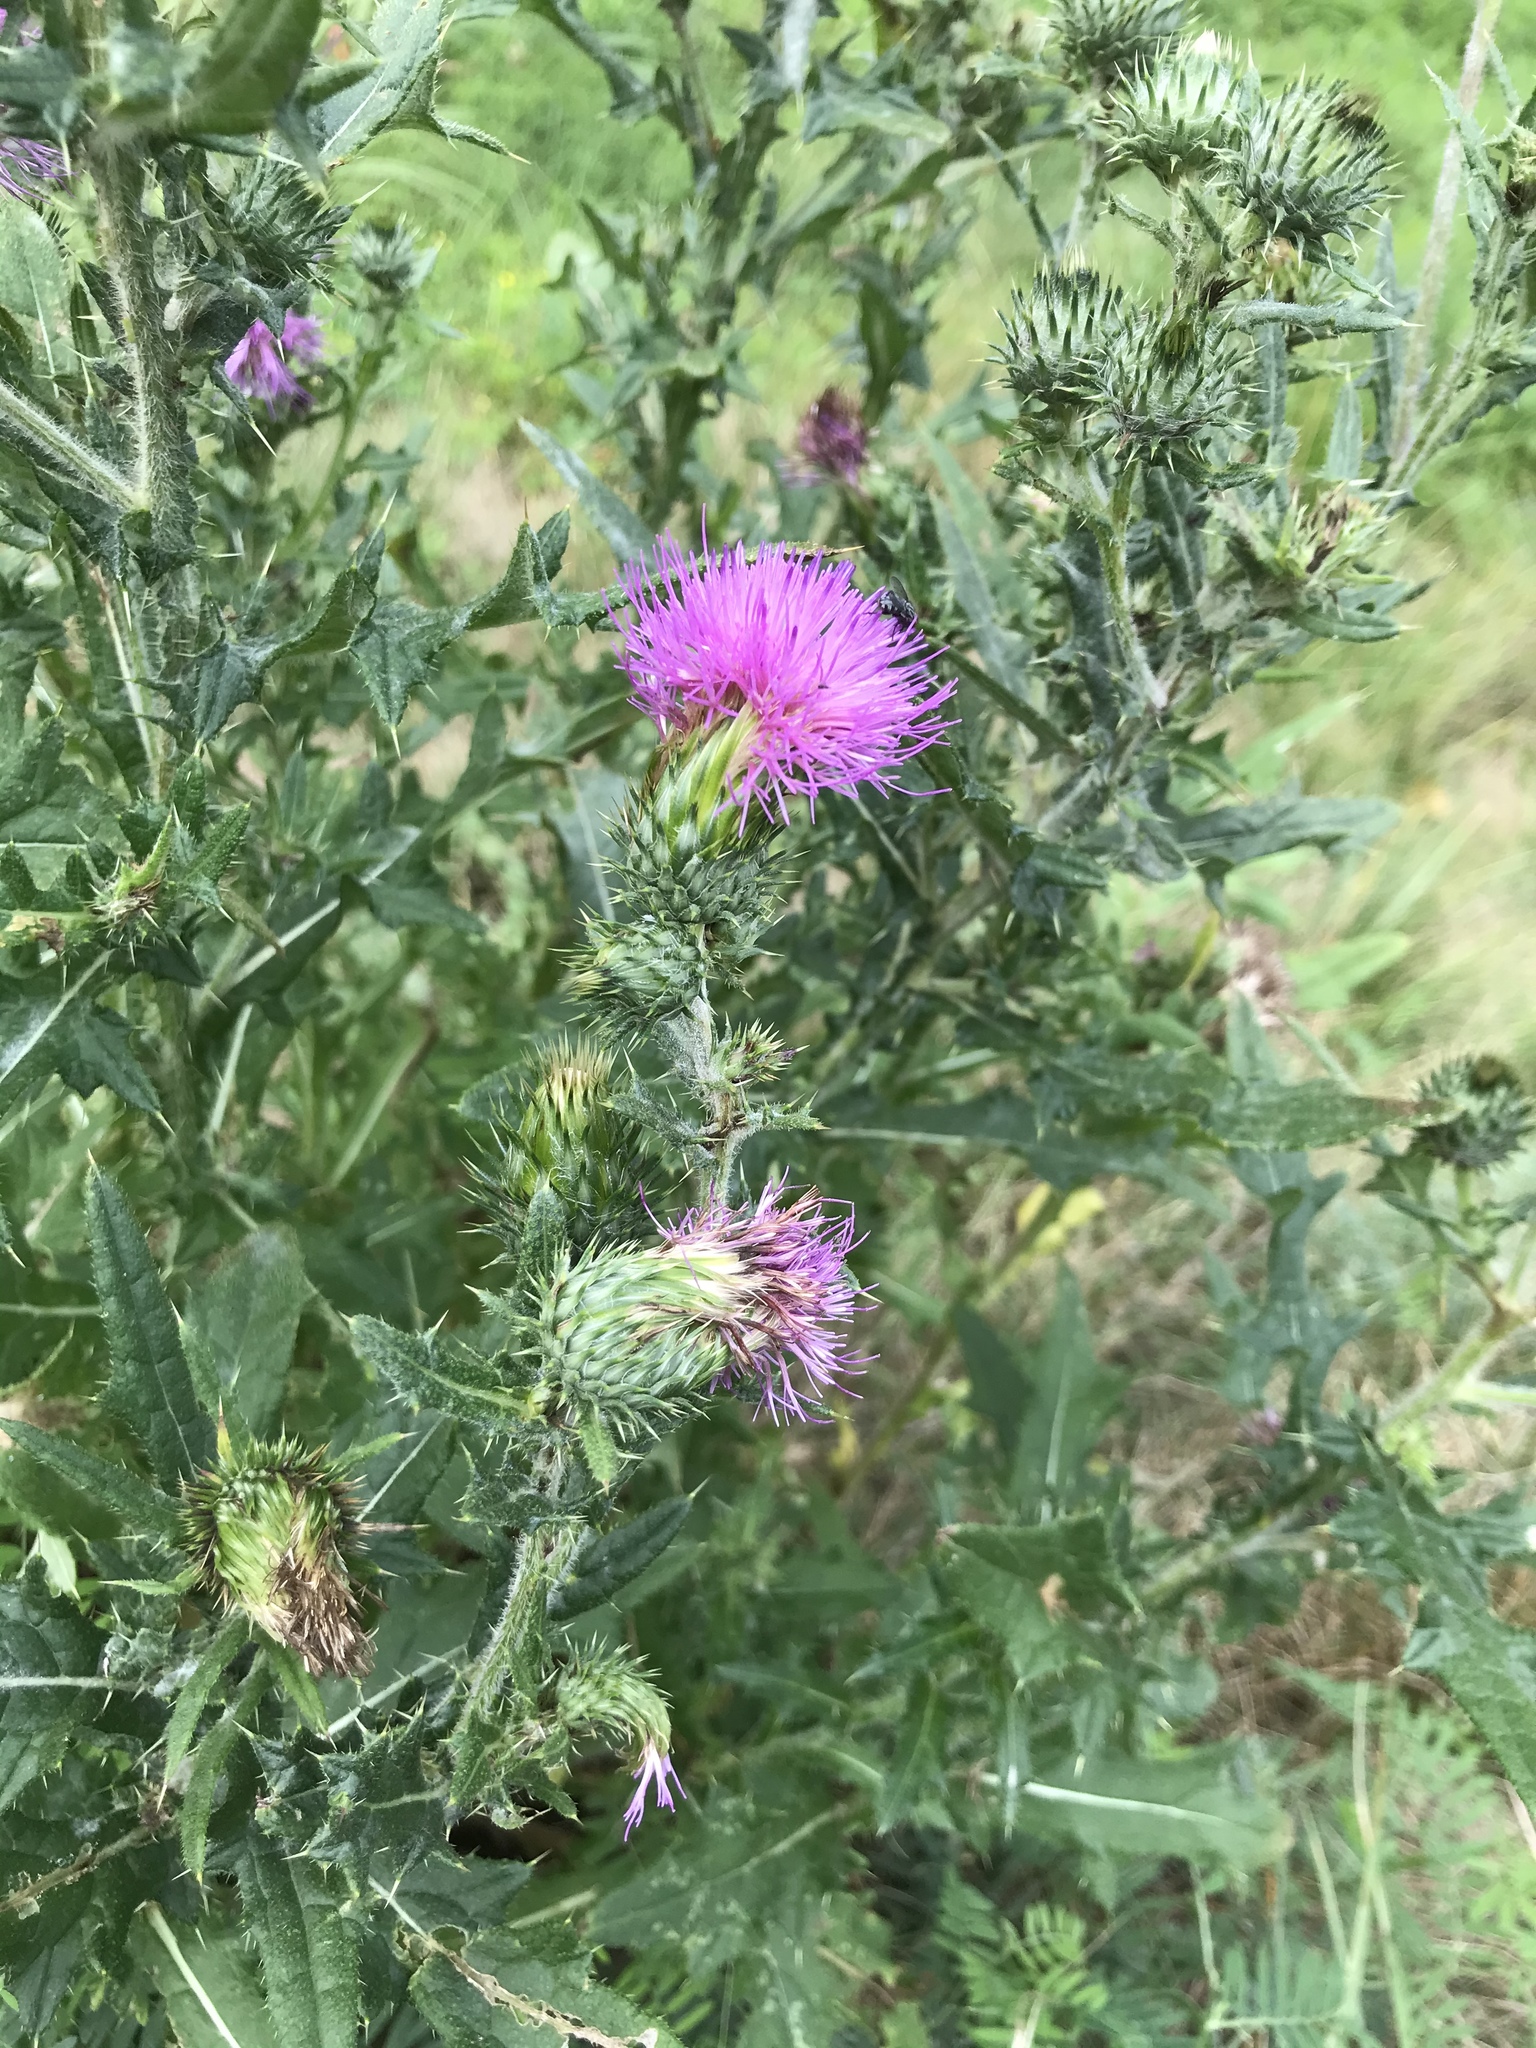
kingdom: Plantae
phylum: Tracheophyta
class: Magnoliopsida
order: Asterales
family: Asteraceae
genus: Cirsium
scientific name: Cirsium vulgare
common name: Bull thistle
